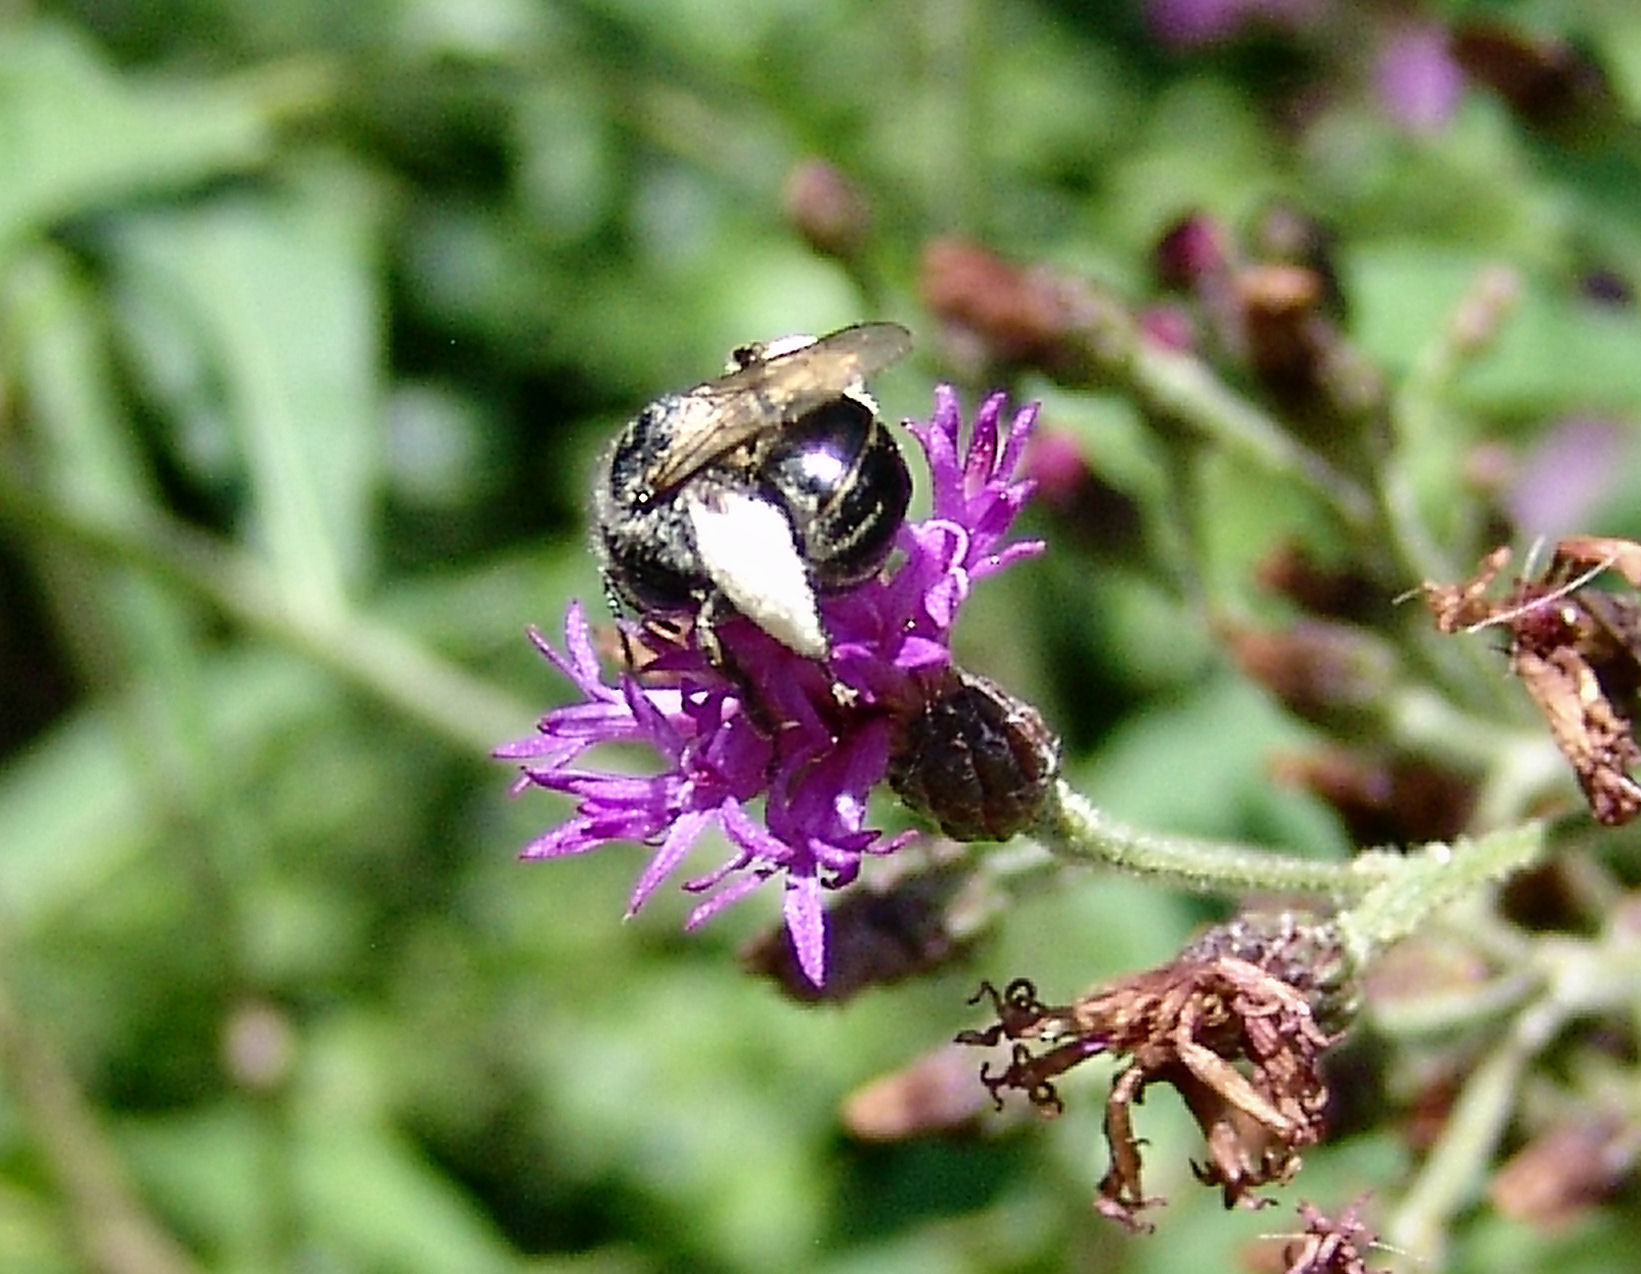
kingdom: Animalia
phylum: Arthropoda
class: Insecta
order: Hymenoptera
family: Apidae
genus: Melissodes
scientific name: Melissodes
